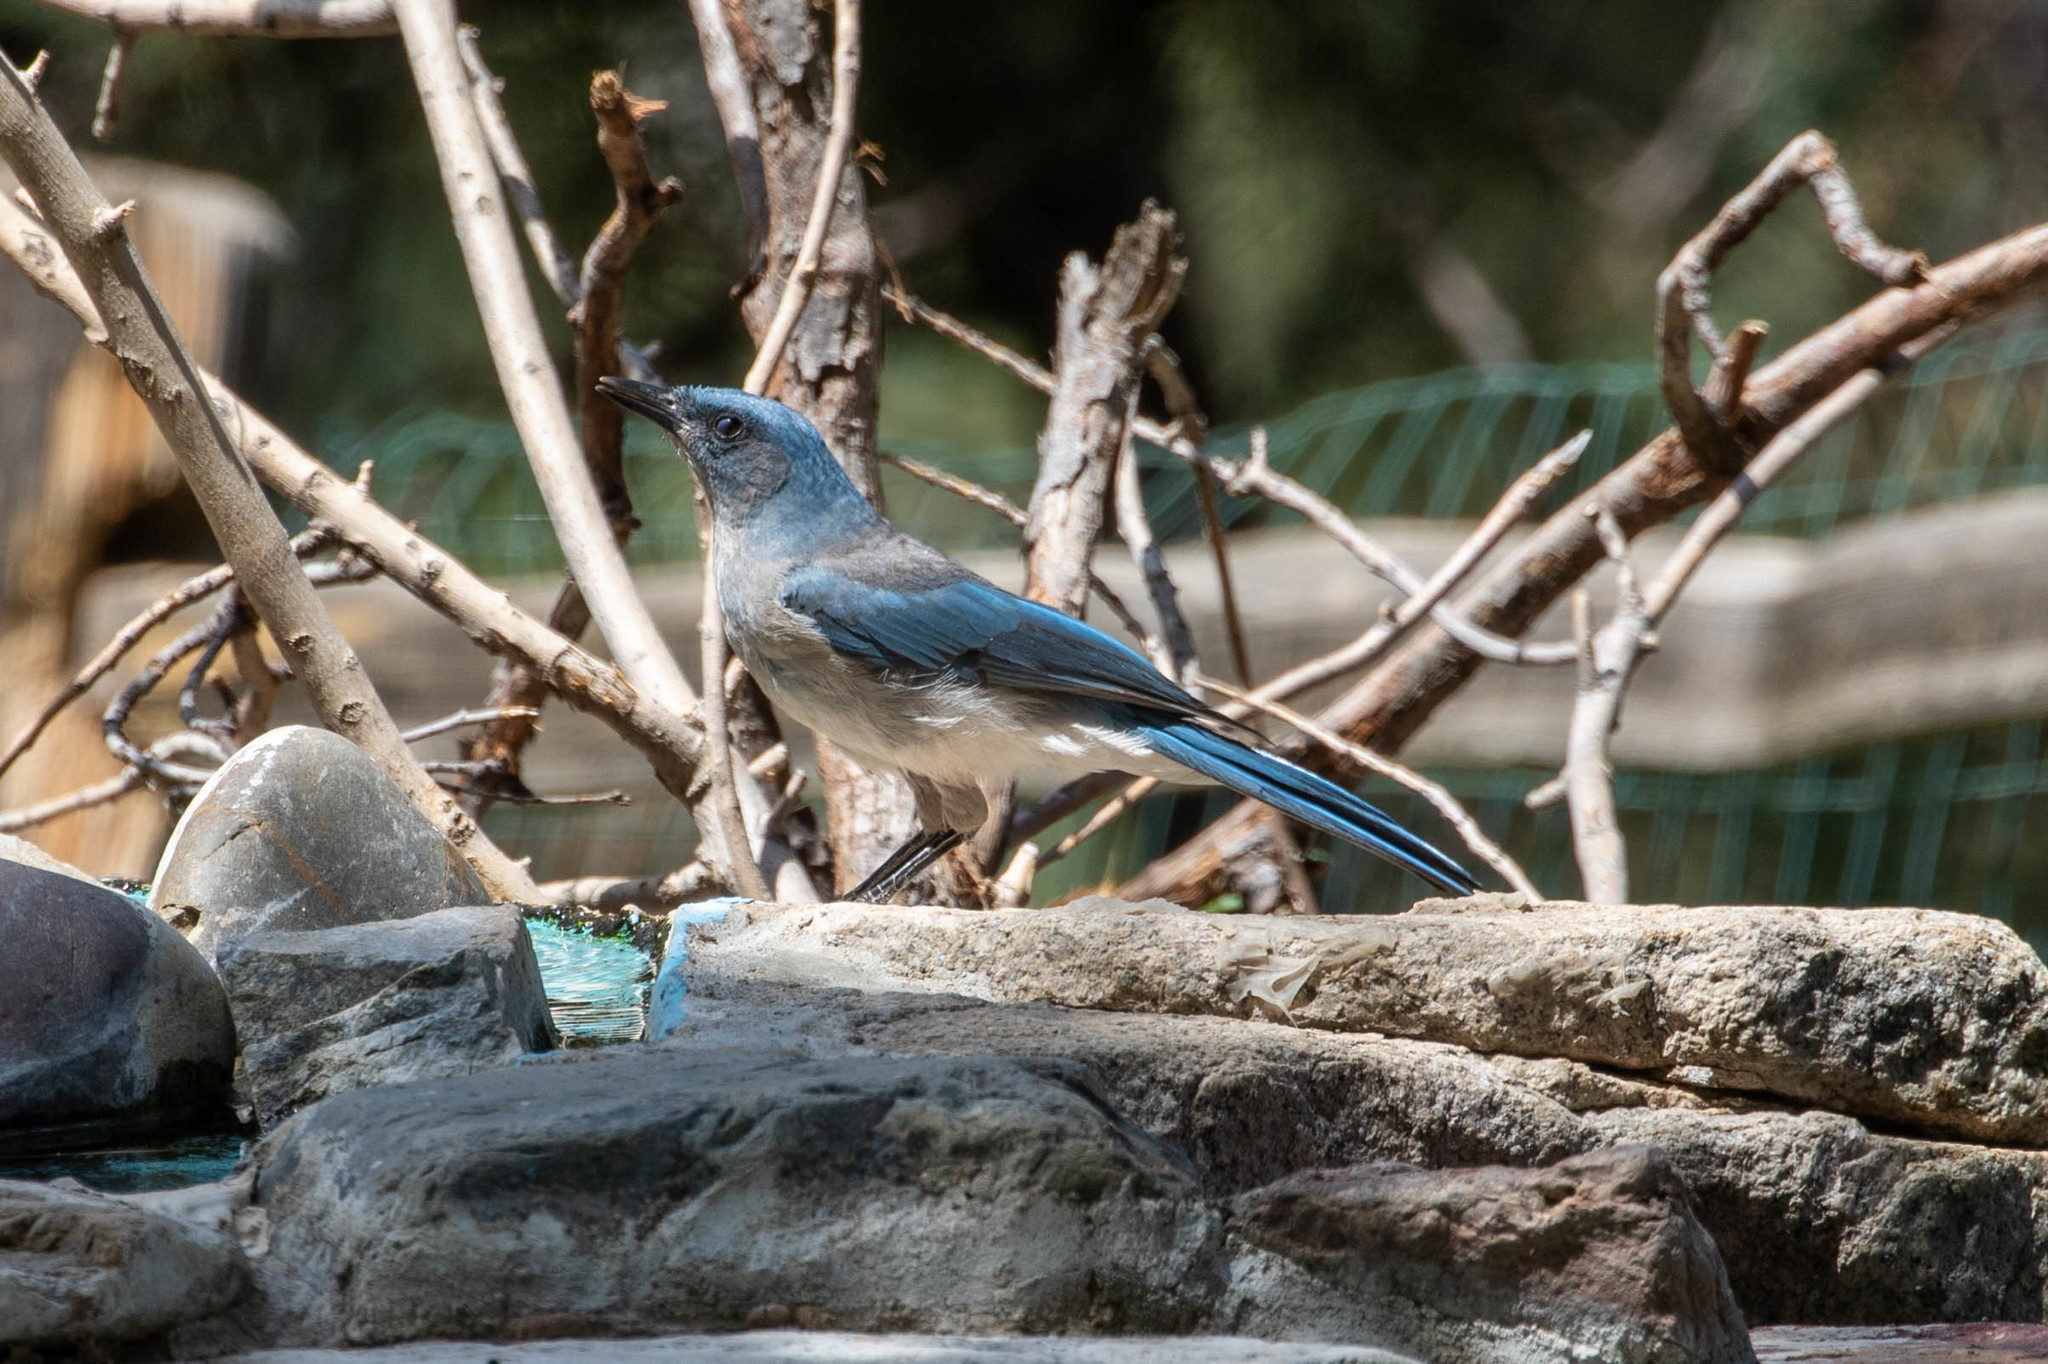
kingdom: Animalia
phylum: Chordata
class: Aves
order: Passeriformes
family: Corvidae
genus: Aphelocoma
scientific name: Aphelocoma wollweberi
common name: Mexican jay
